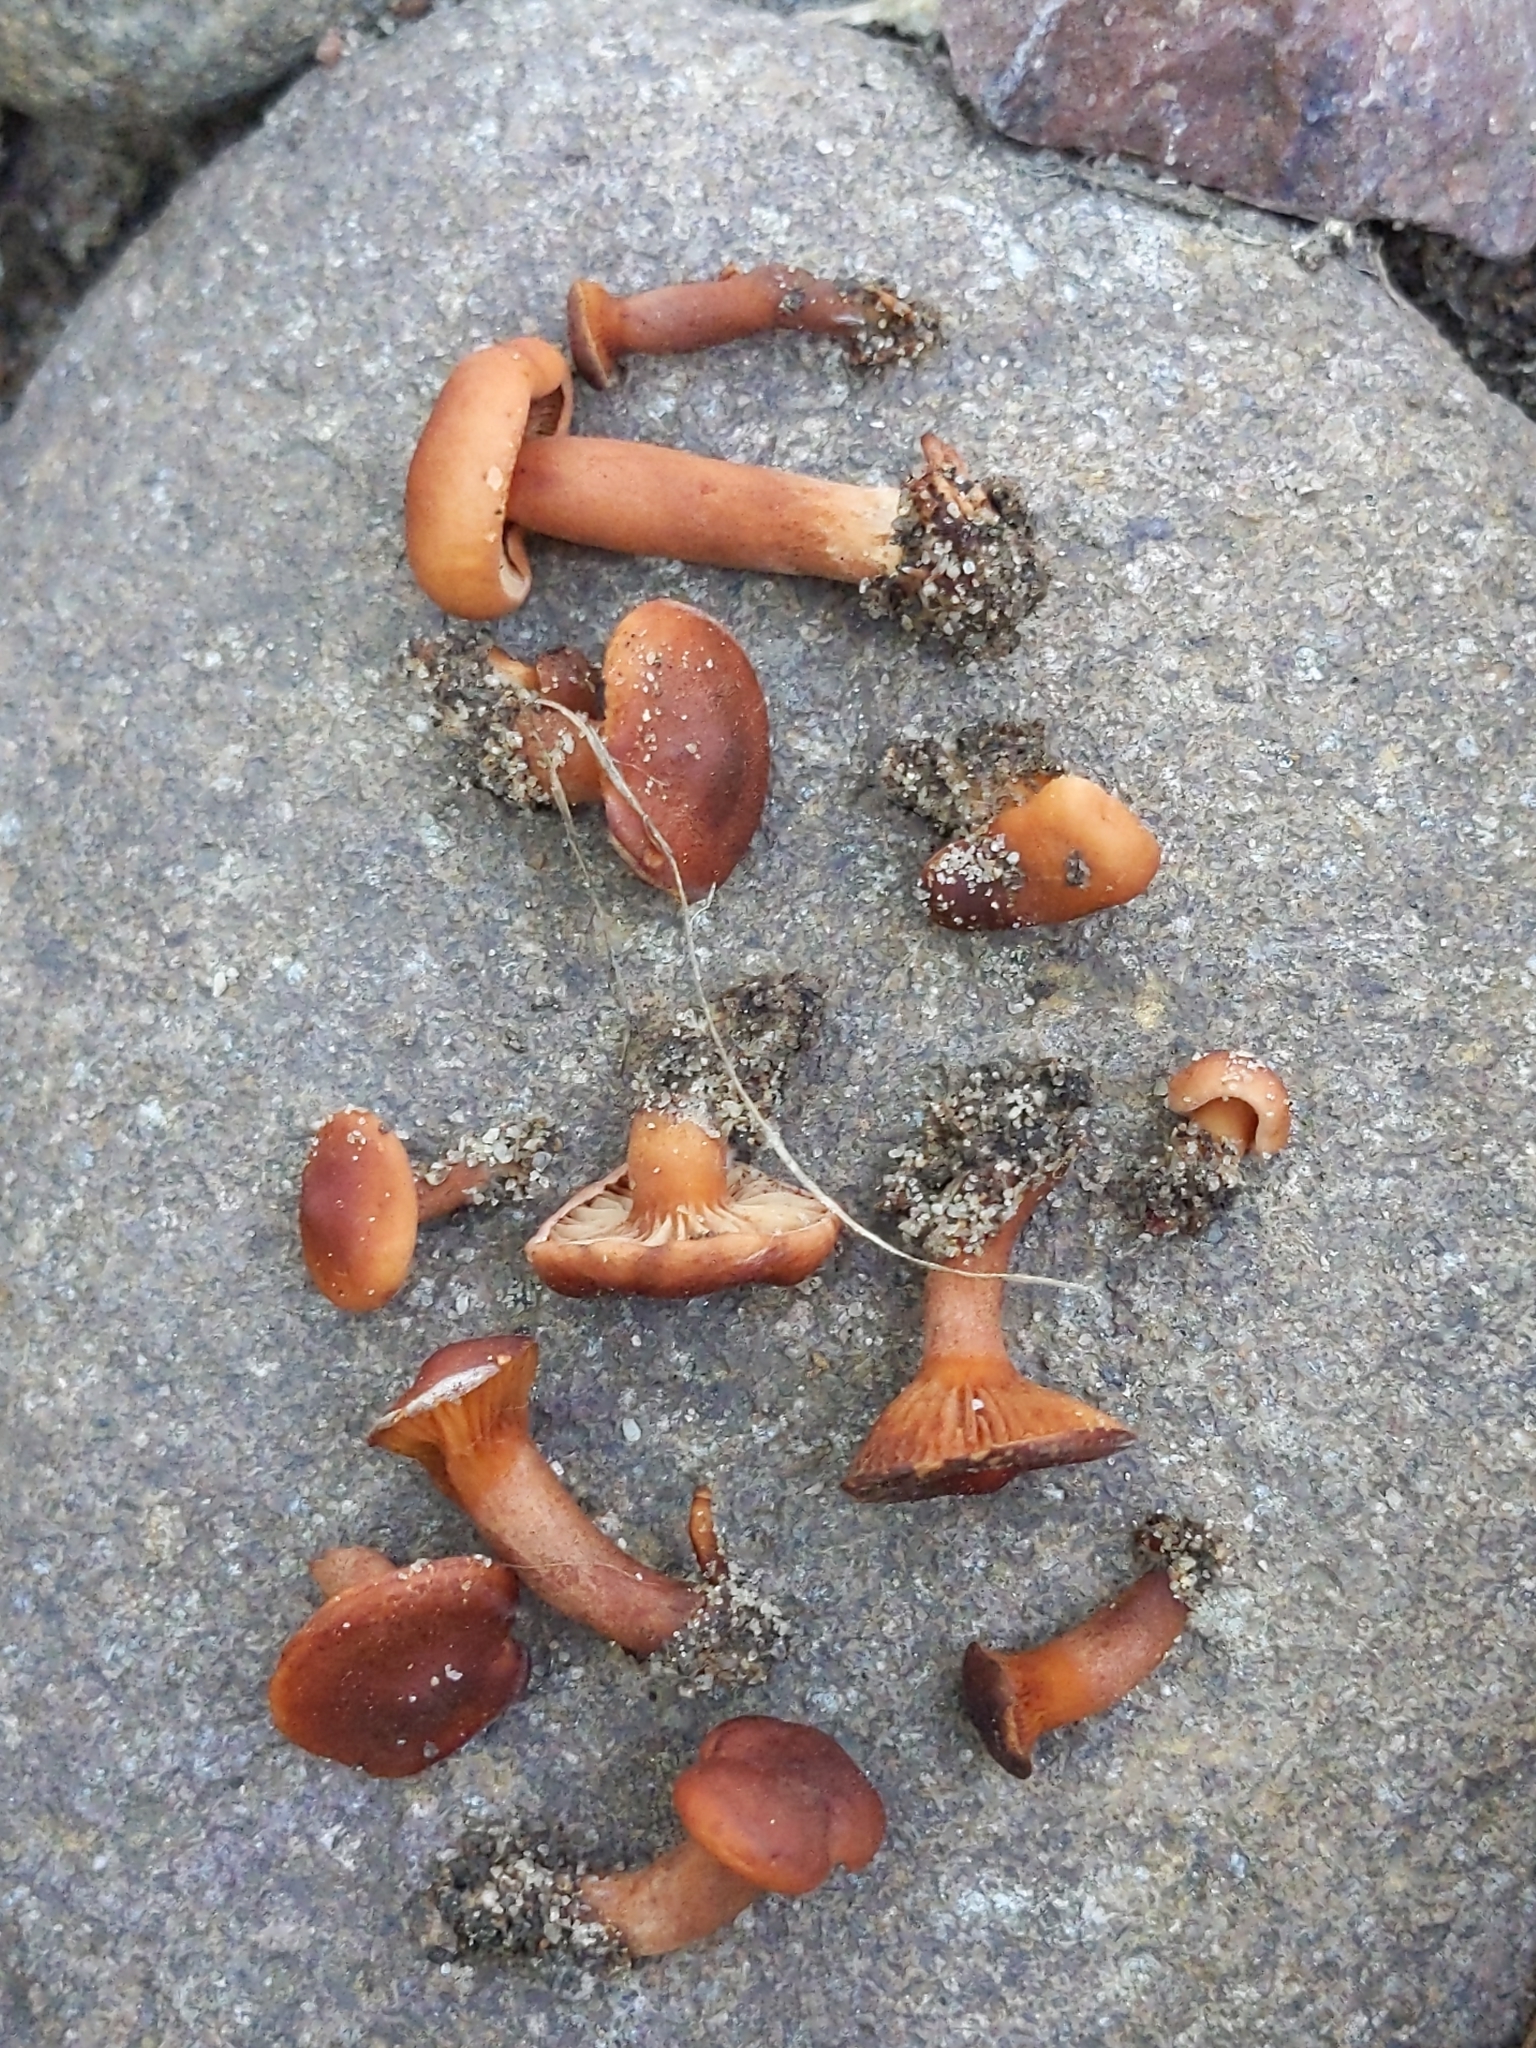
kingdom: Fungi
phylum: Basidiomycota
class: Agaricomycetes
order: Russulales
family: Russulaceae
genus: Lactarius
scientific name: Lactarius rufulus
